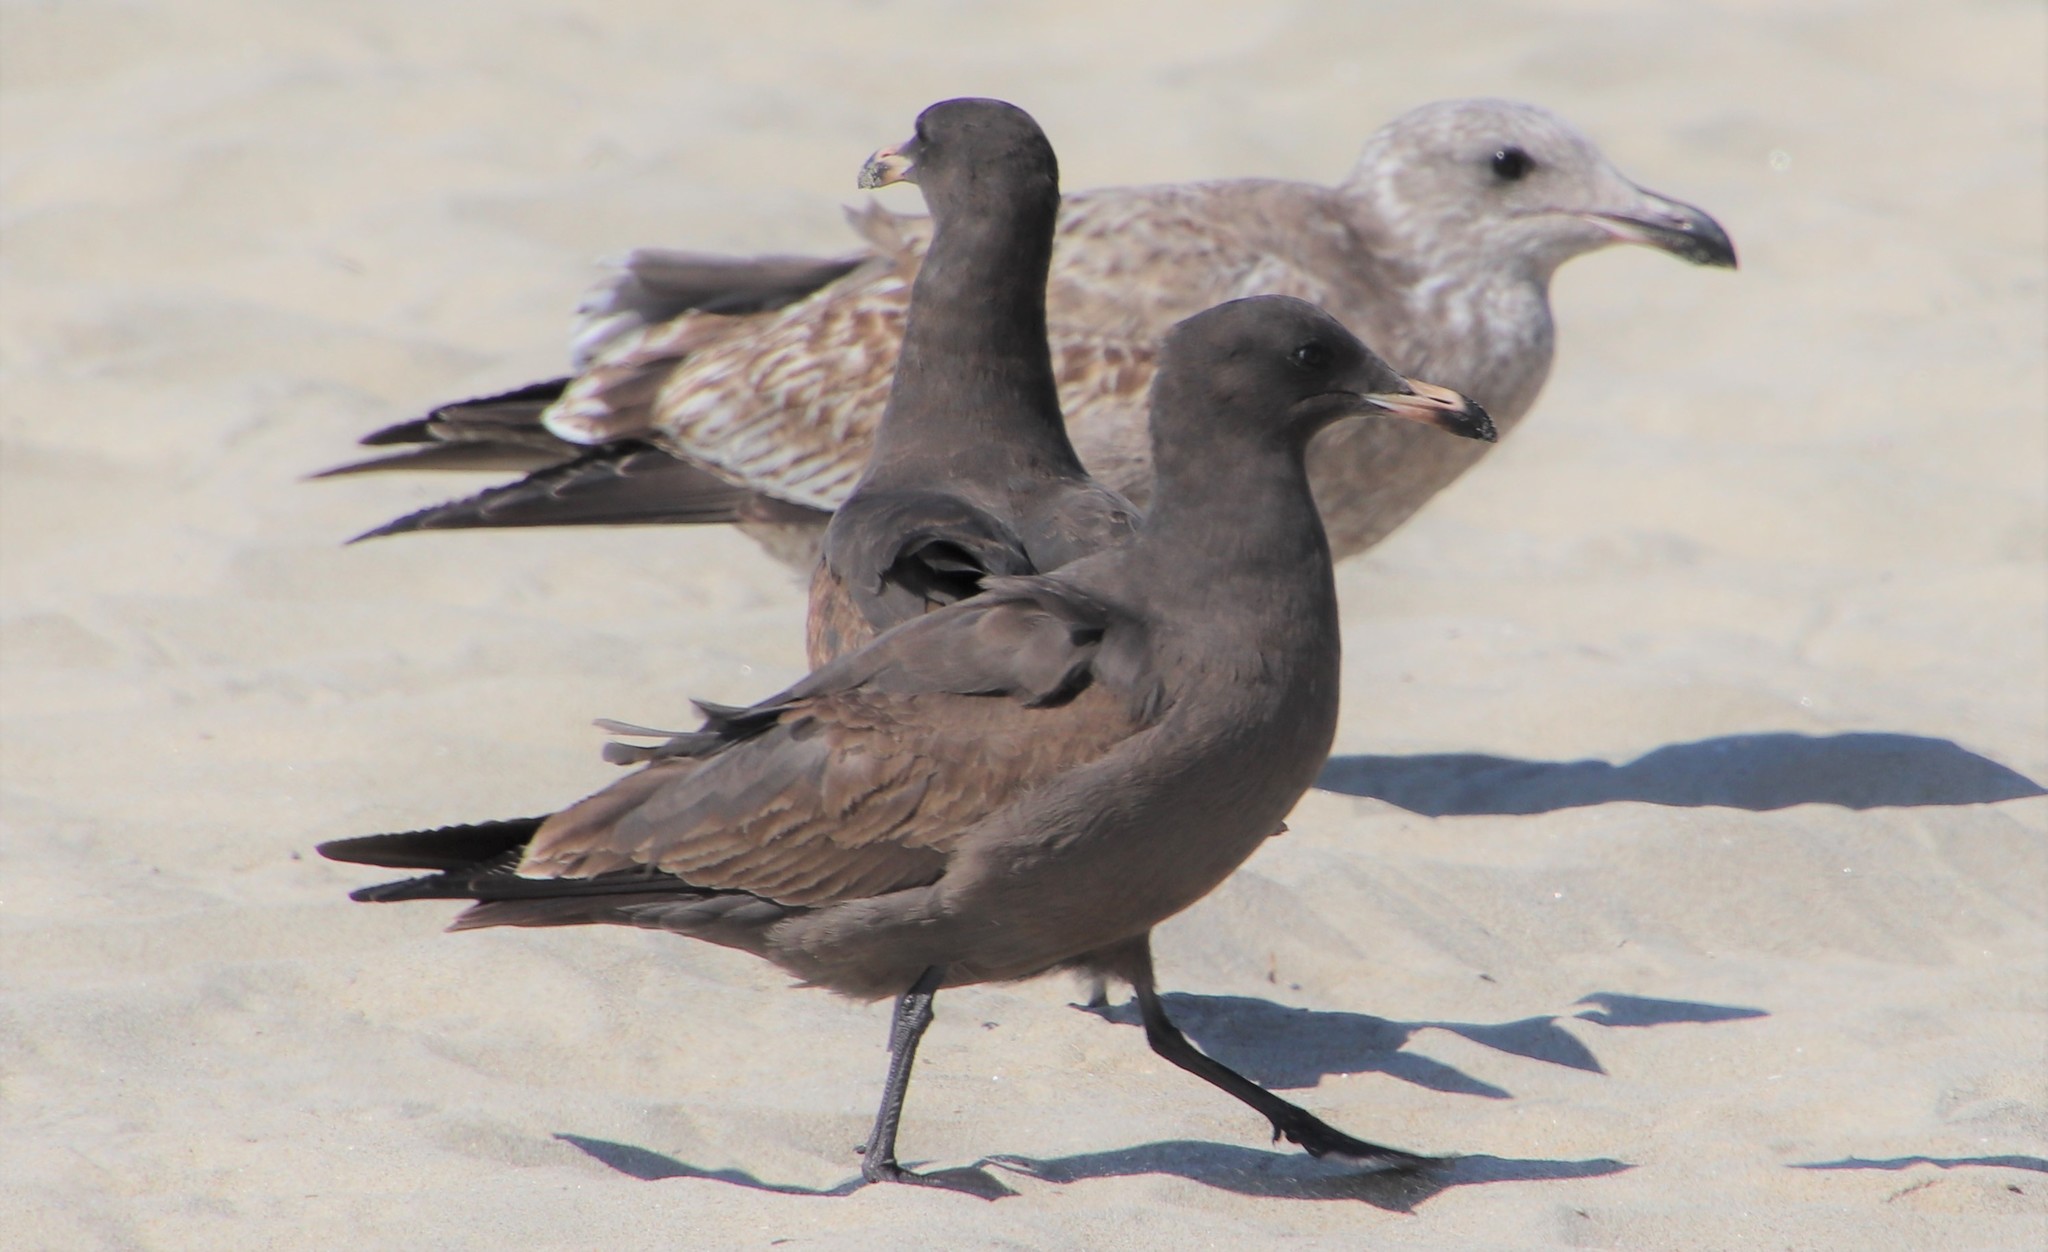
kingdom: Animalia
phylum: Chordata
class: Aves
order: Charadriiformes
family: Laridae
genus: Larus
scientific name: Larus heermanni
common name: Heermann's gull
